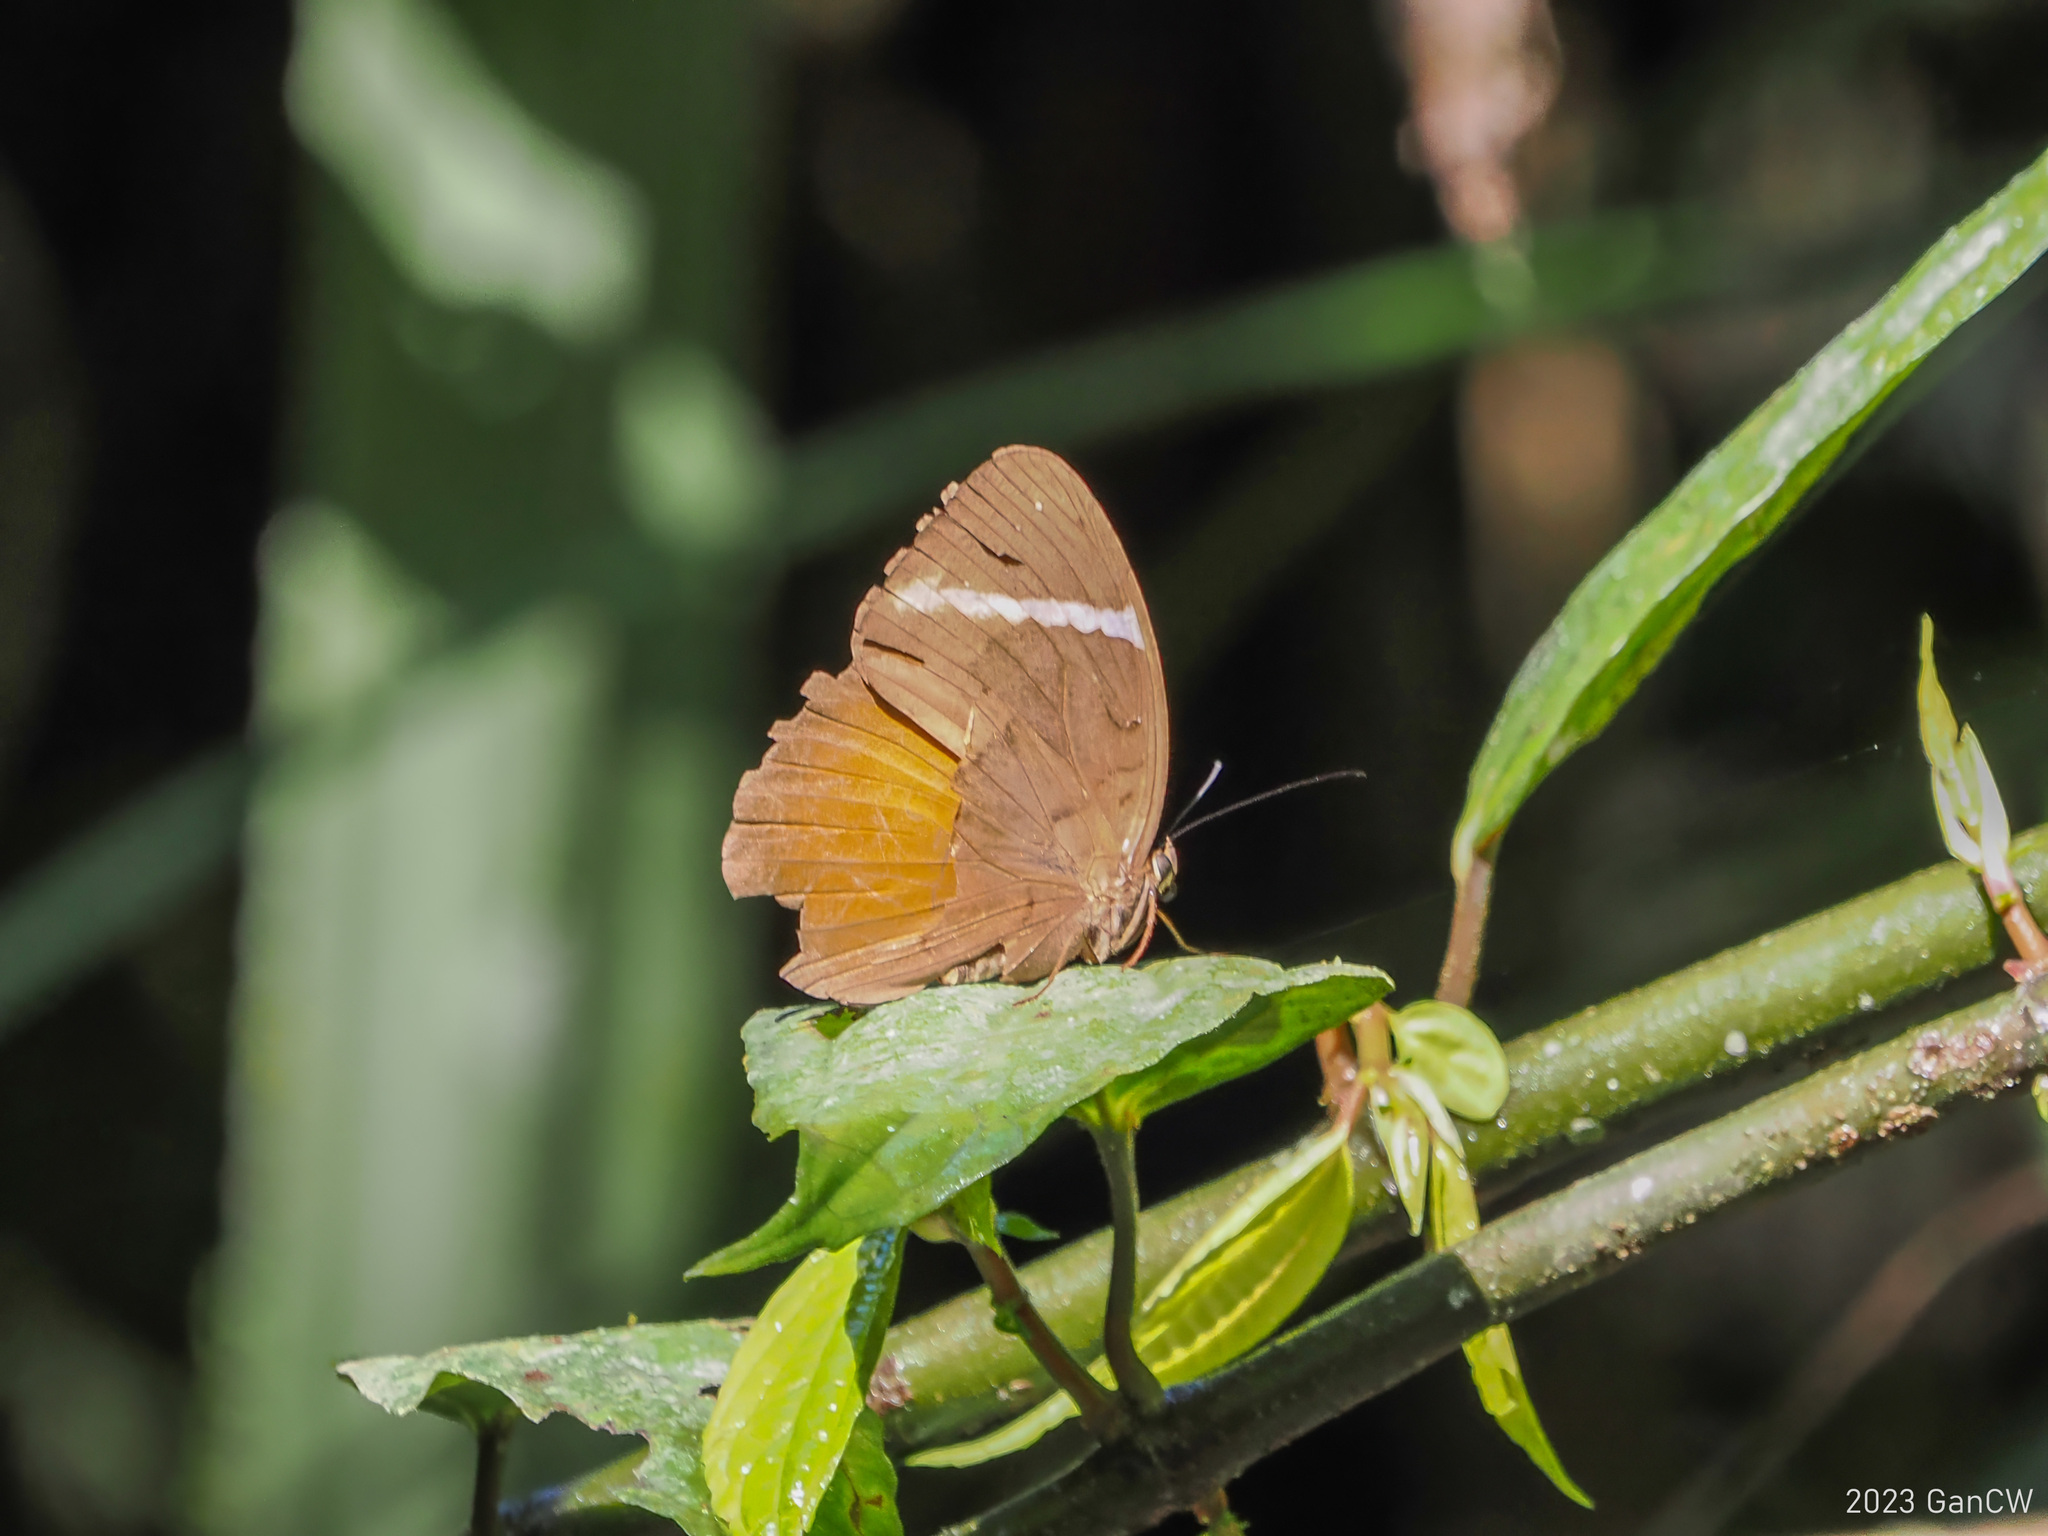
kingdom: Animalia
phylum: Arthropoda
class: Insecta
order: Lepidoptera
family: Nymphalidae
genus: Faunis
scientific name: Faunis menado
